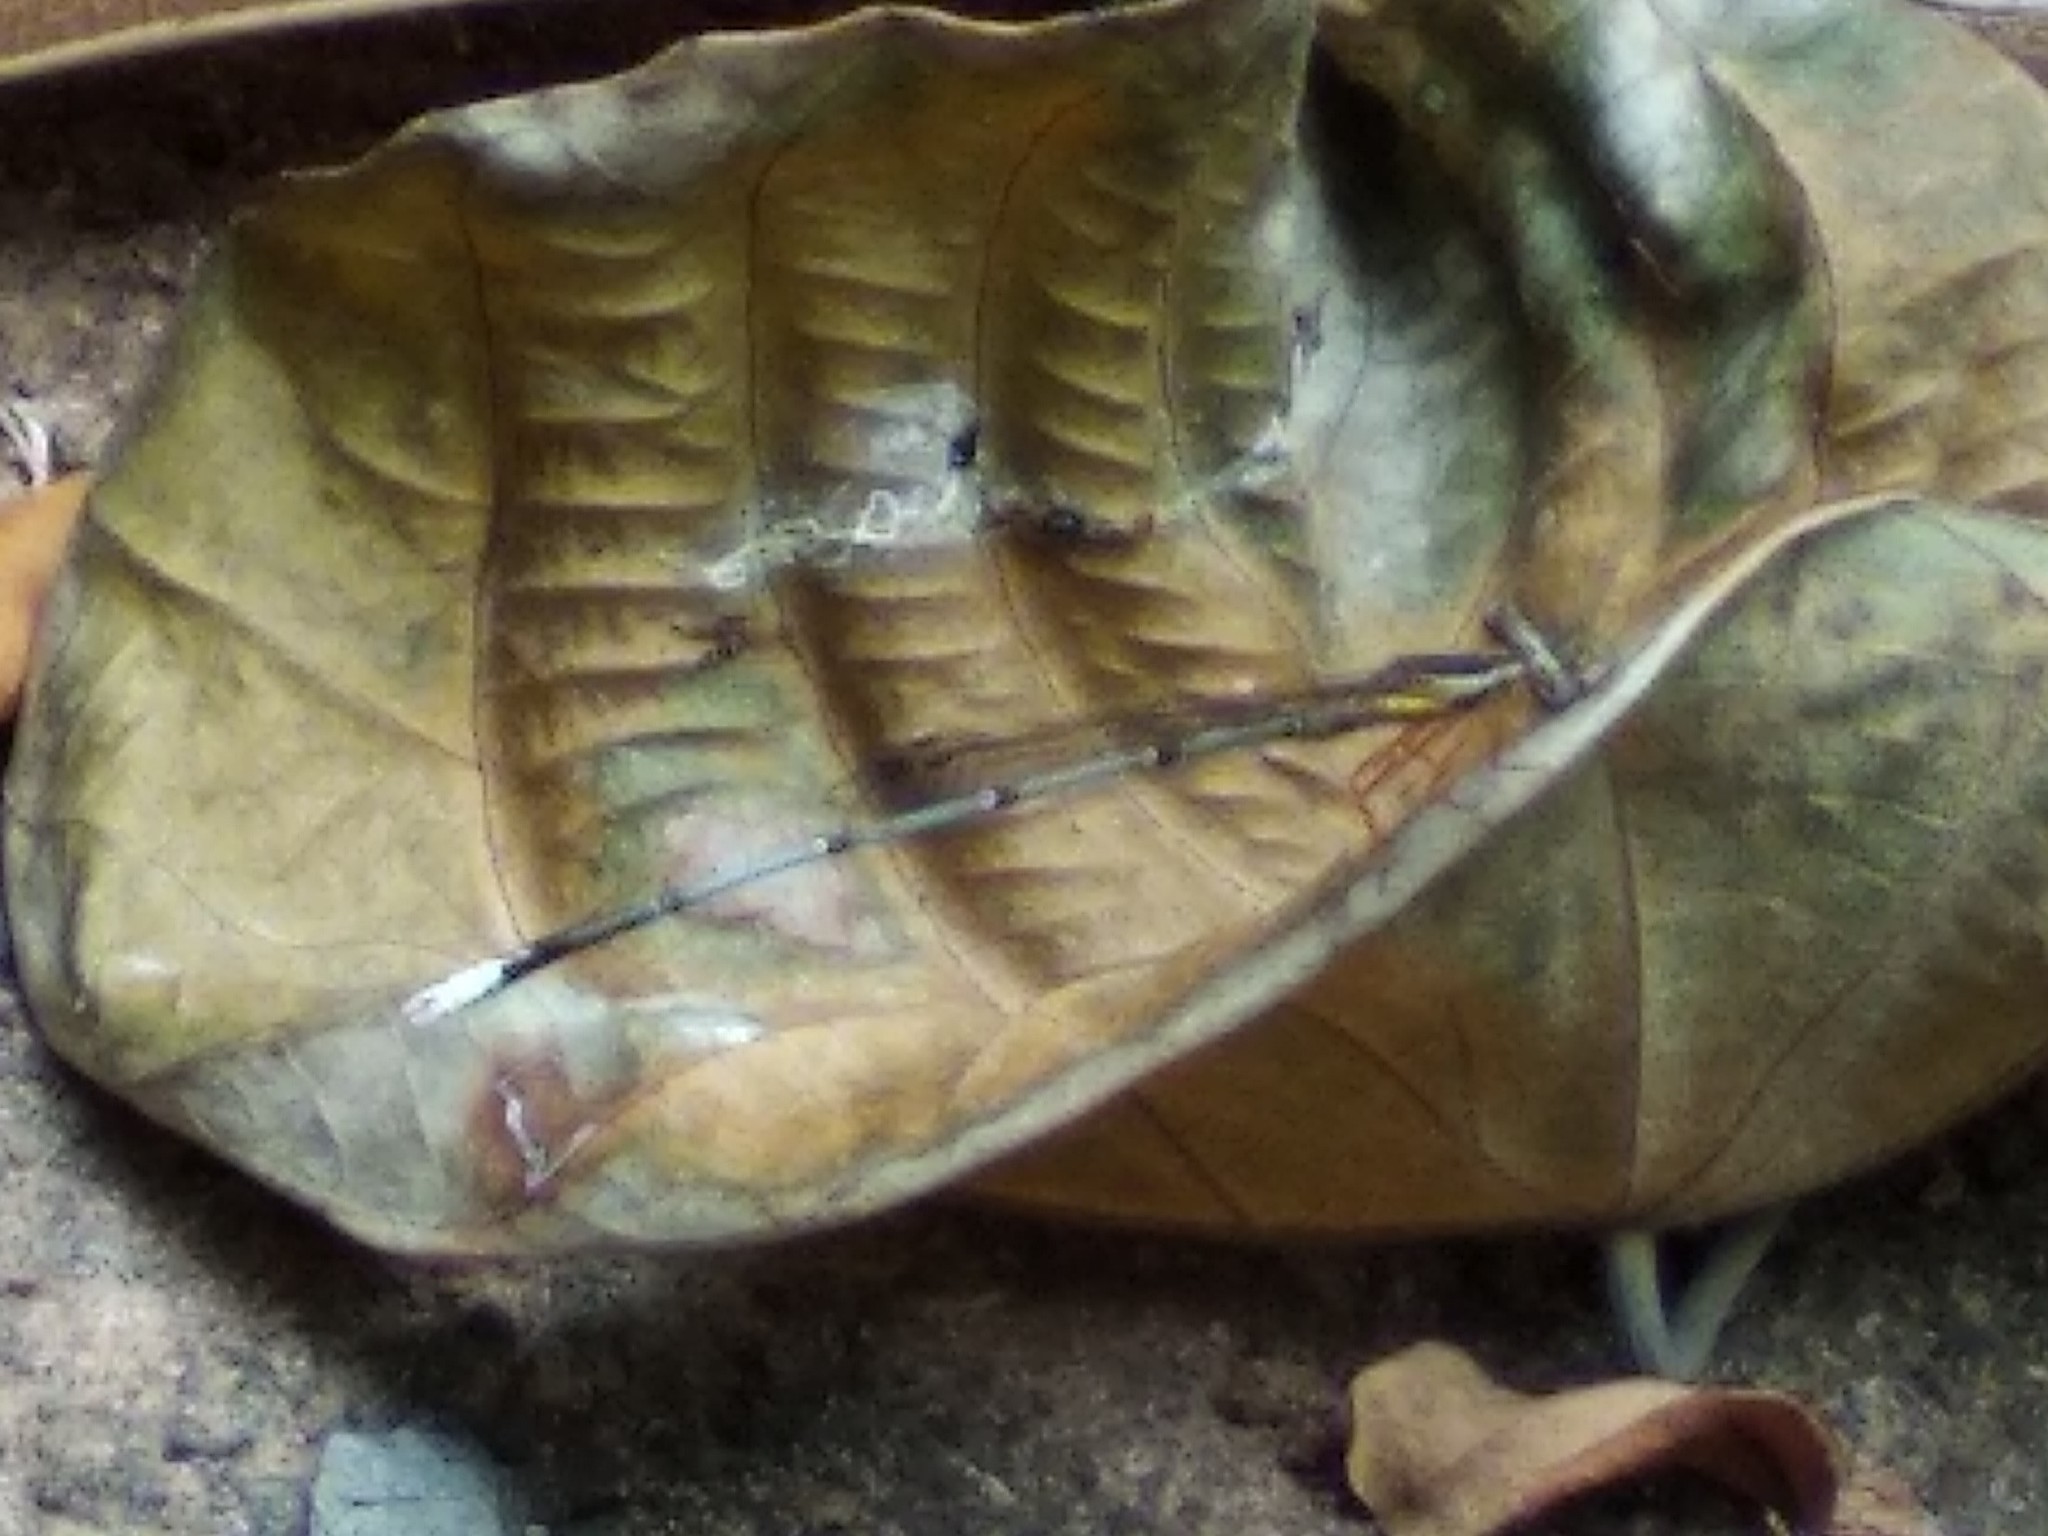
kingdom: Animalia
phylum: Arthropoda
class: Insecta
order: Odonata
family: Platycnemididae
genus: Copera
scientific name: Copera marginipes
